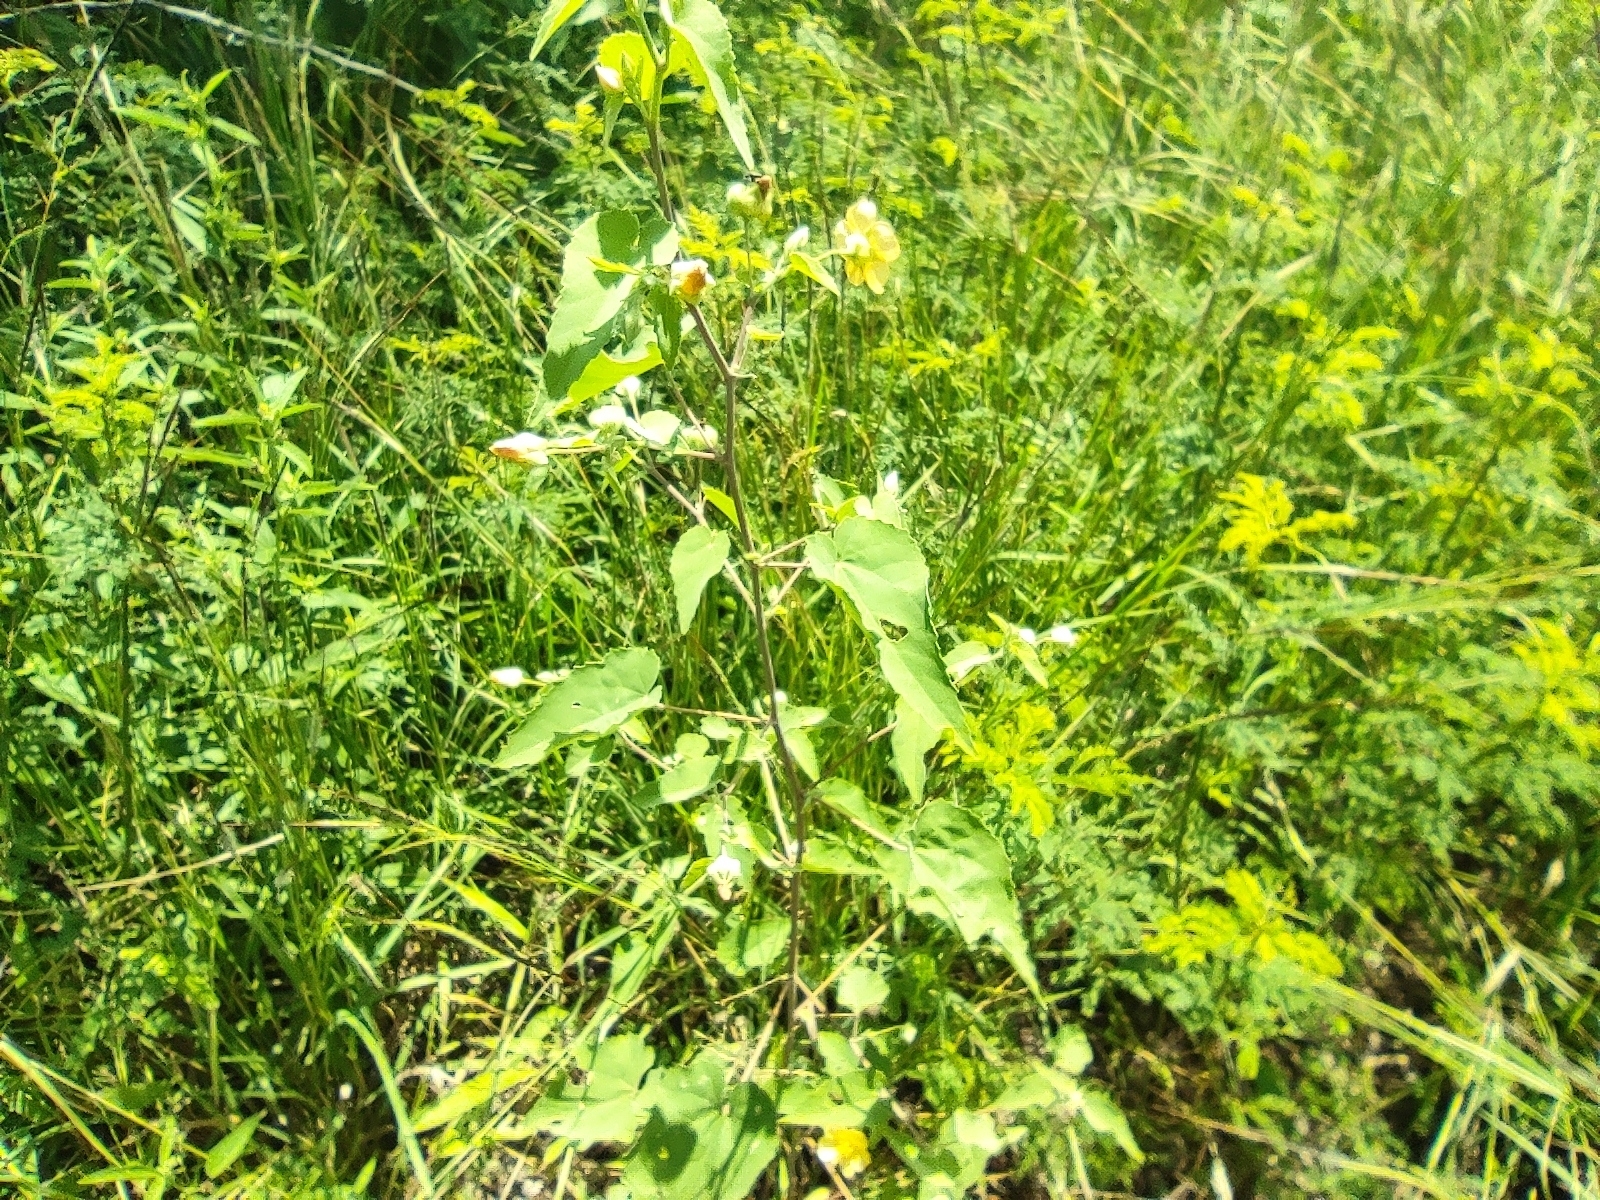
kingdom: Plantae
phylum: Tracheophyta
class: Magnoliopsida
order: Malvales
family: Malvaceae
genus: Abutilon
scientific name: Abutilon indicum
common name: Indian abutilon
